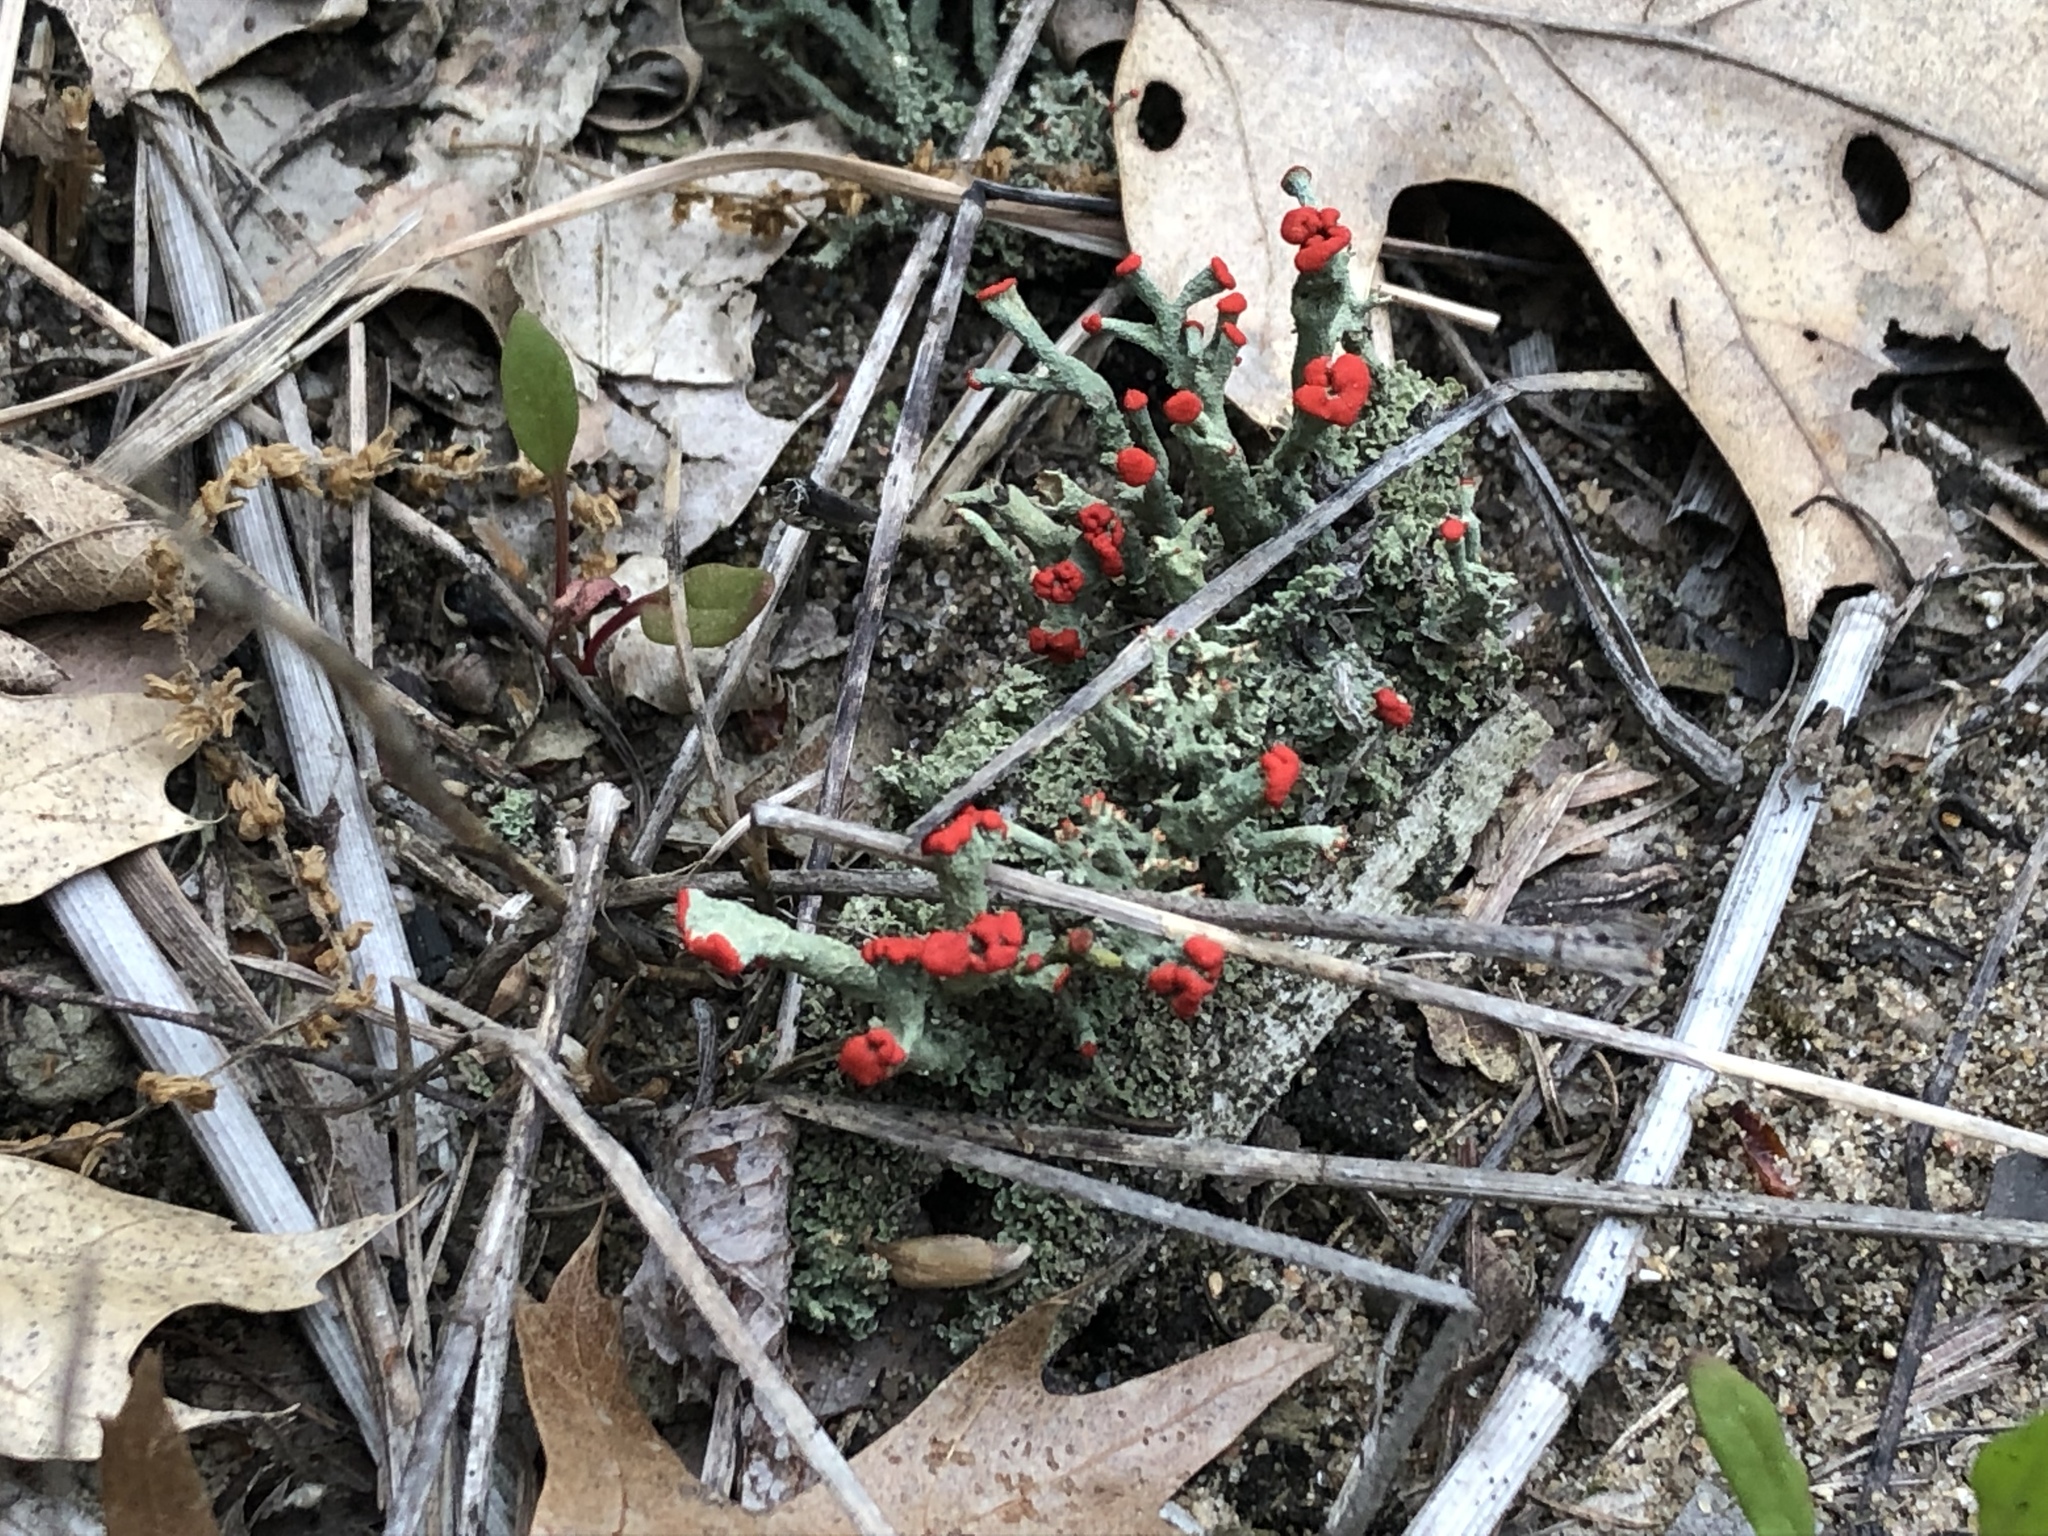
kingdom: Fungi
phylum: Ascomycota
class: Lecanoromycetes
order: Lecanorales
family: Cladoniaceae
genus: Cladonia
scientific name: Cladonia cristatella
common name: British soldier lichen
